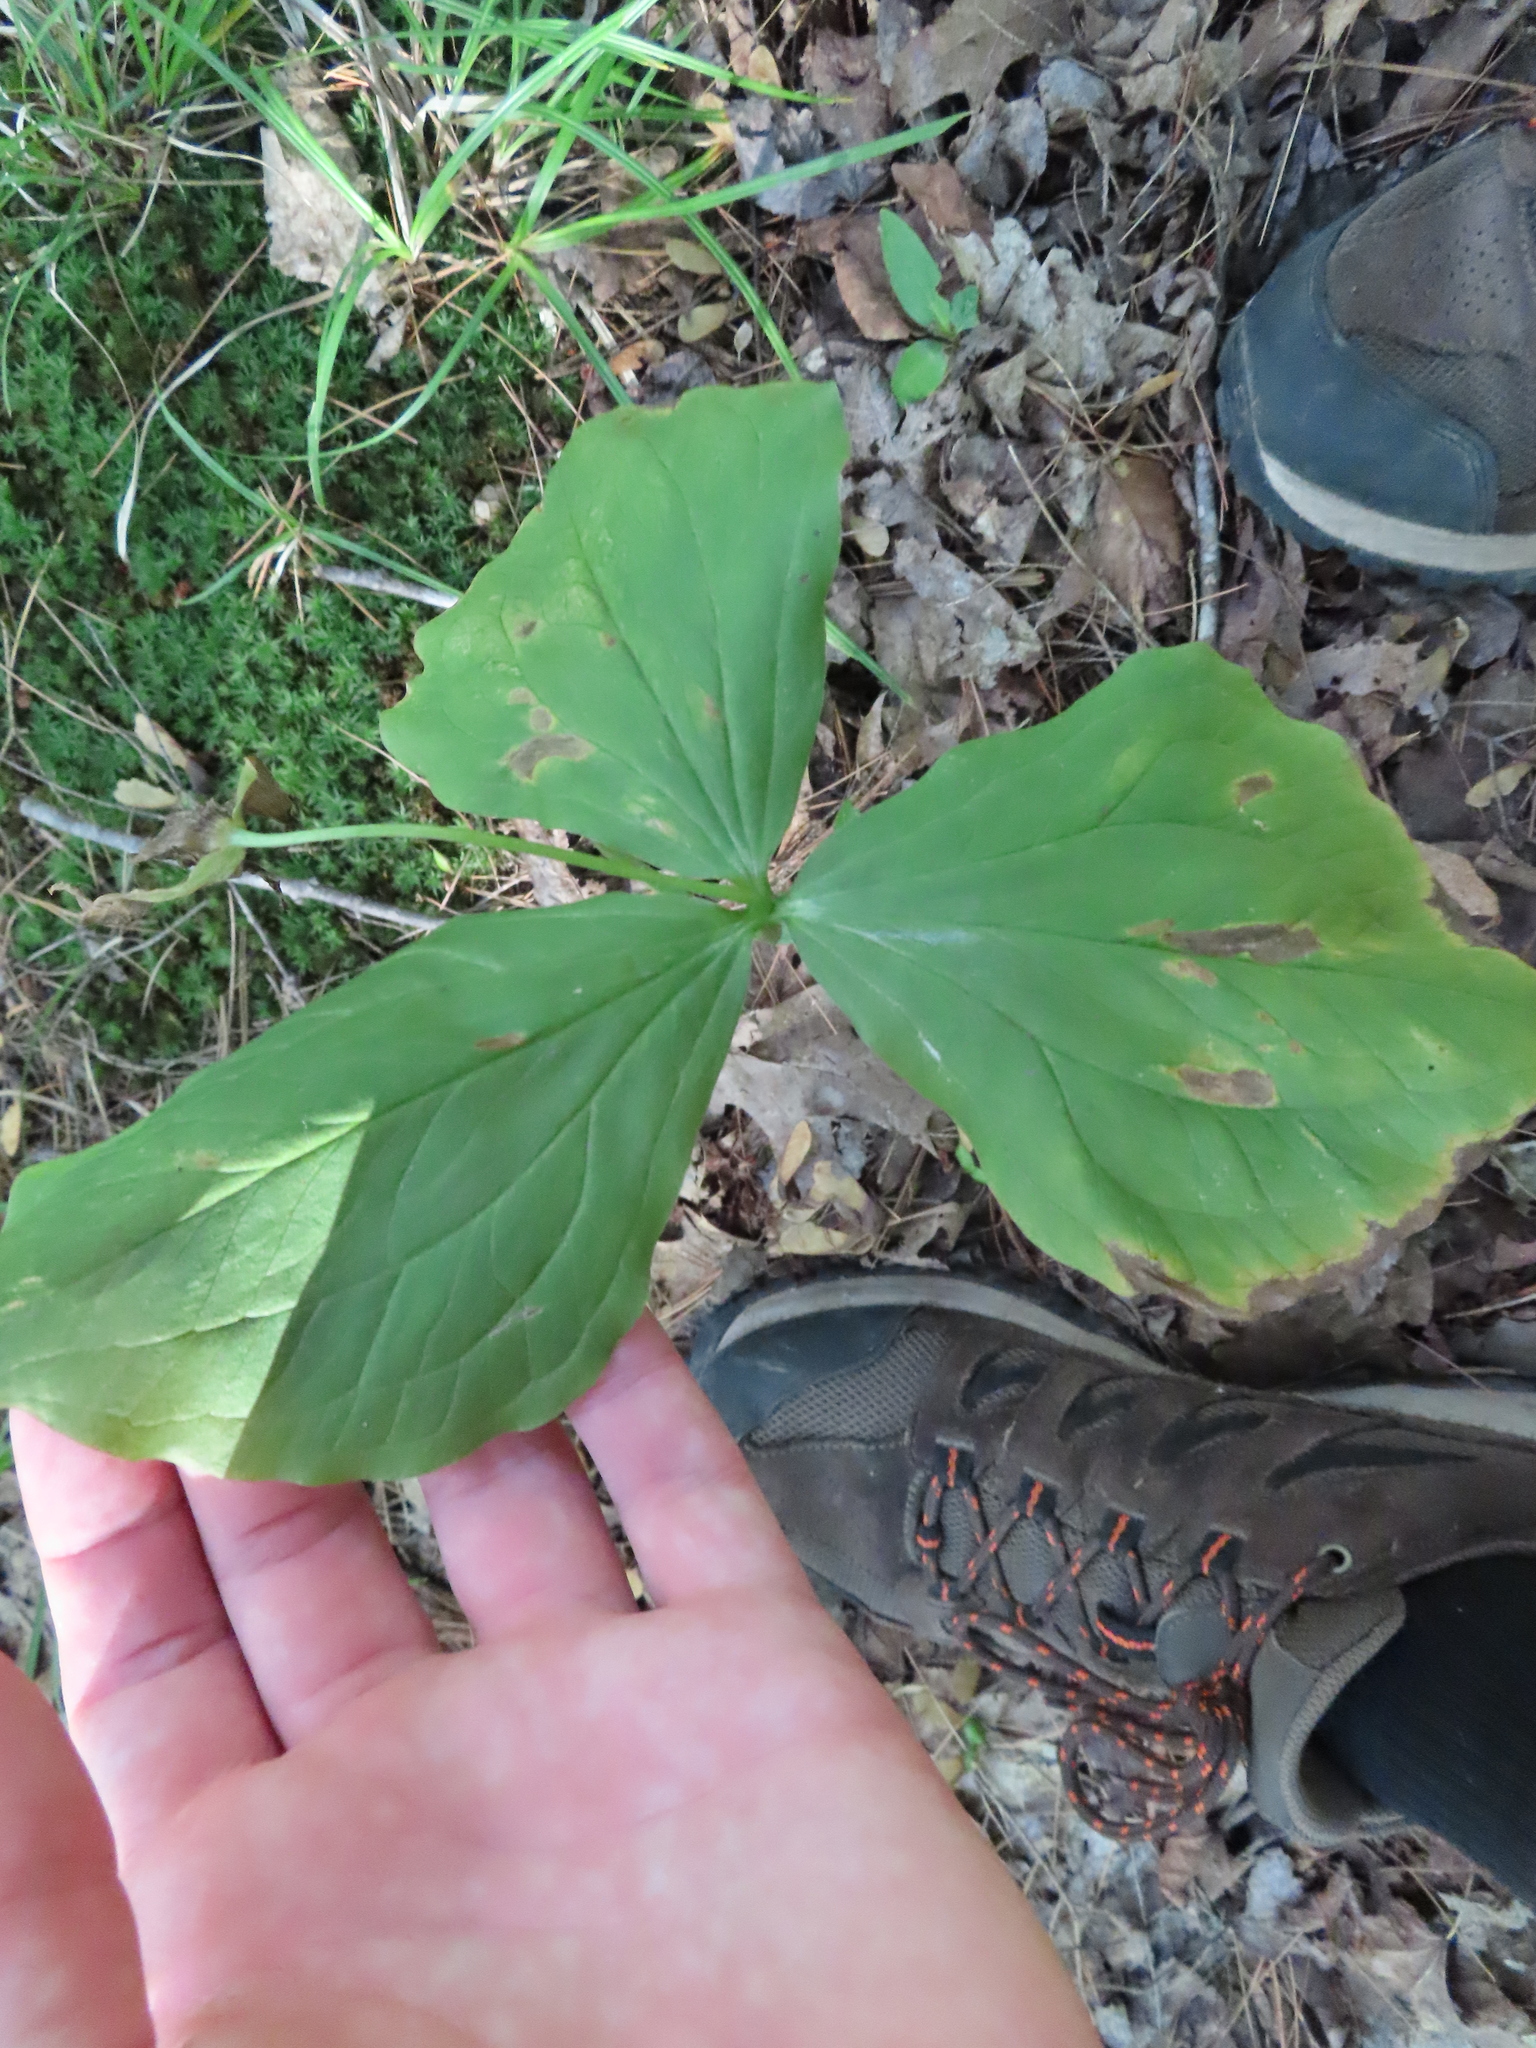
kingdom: Plantae
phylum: Tracheophyta
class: Liliopsida
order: Liliales
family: Melanthiaceae
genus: Trillium
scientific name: Trillium grandiflorum
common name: Great white trillium
